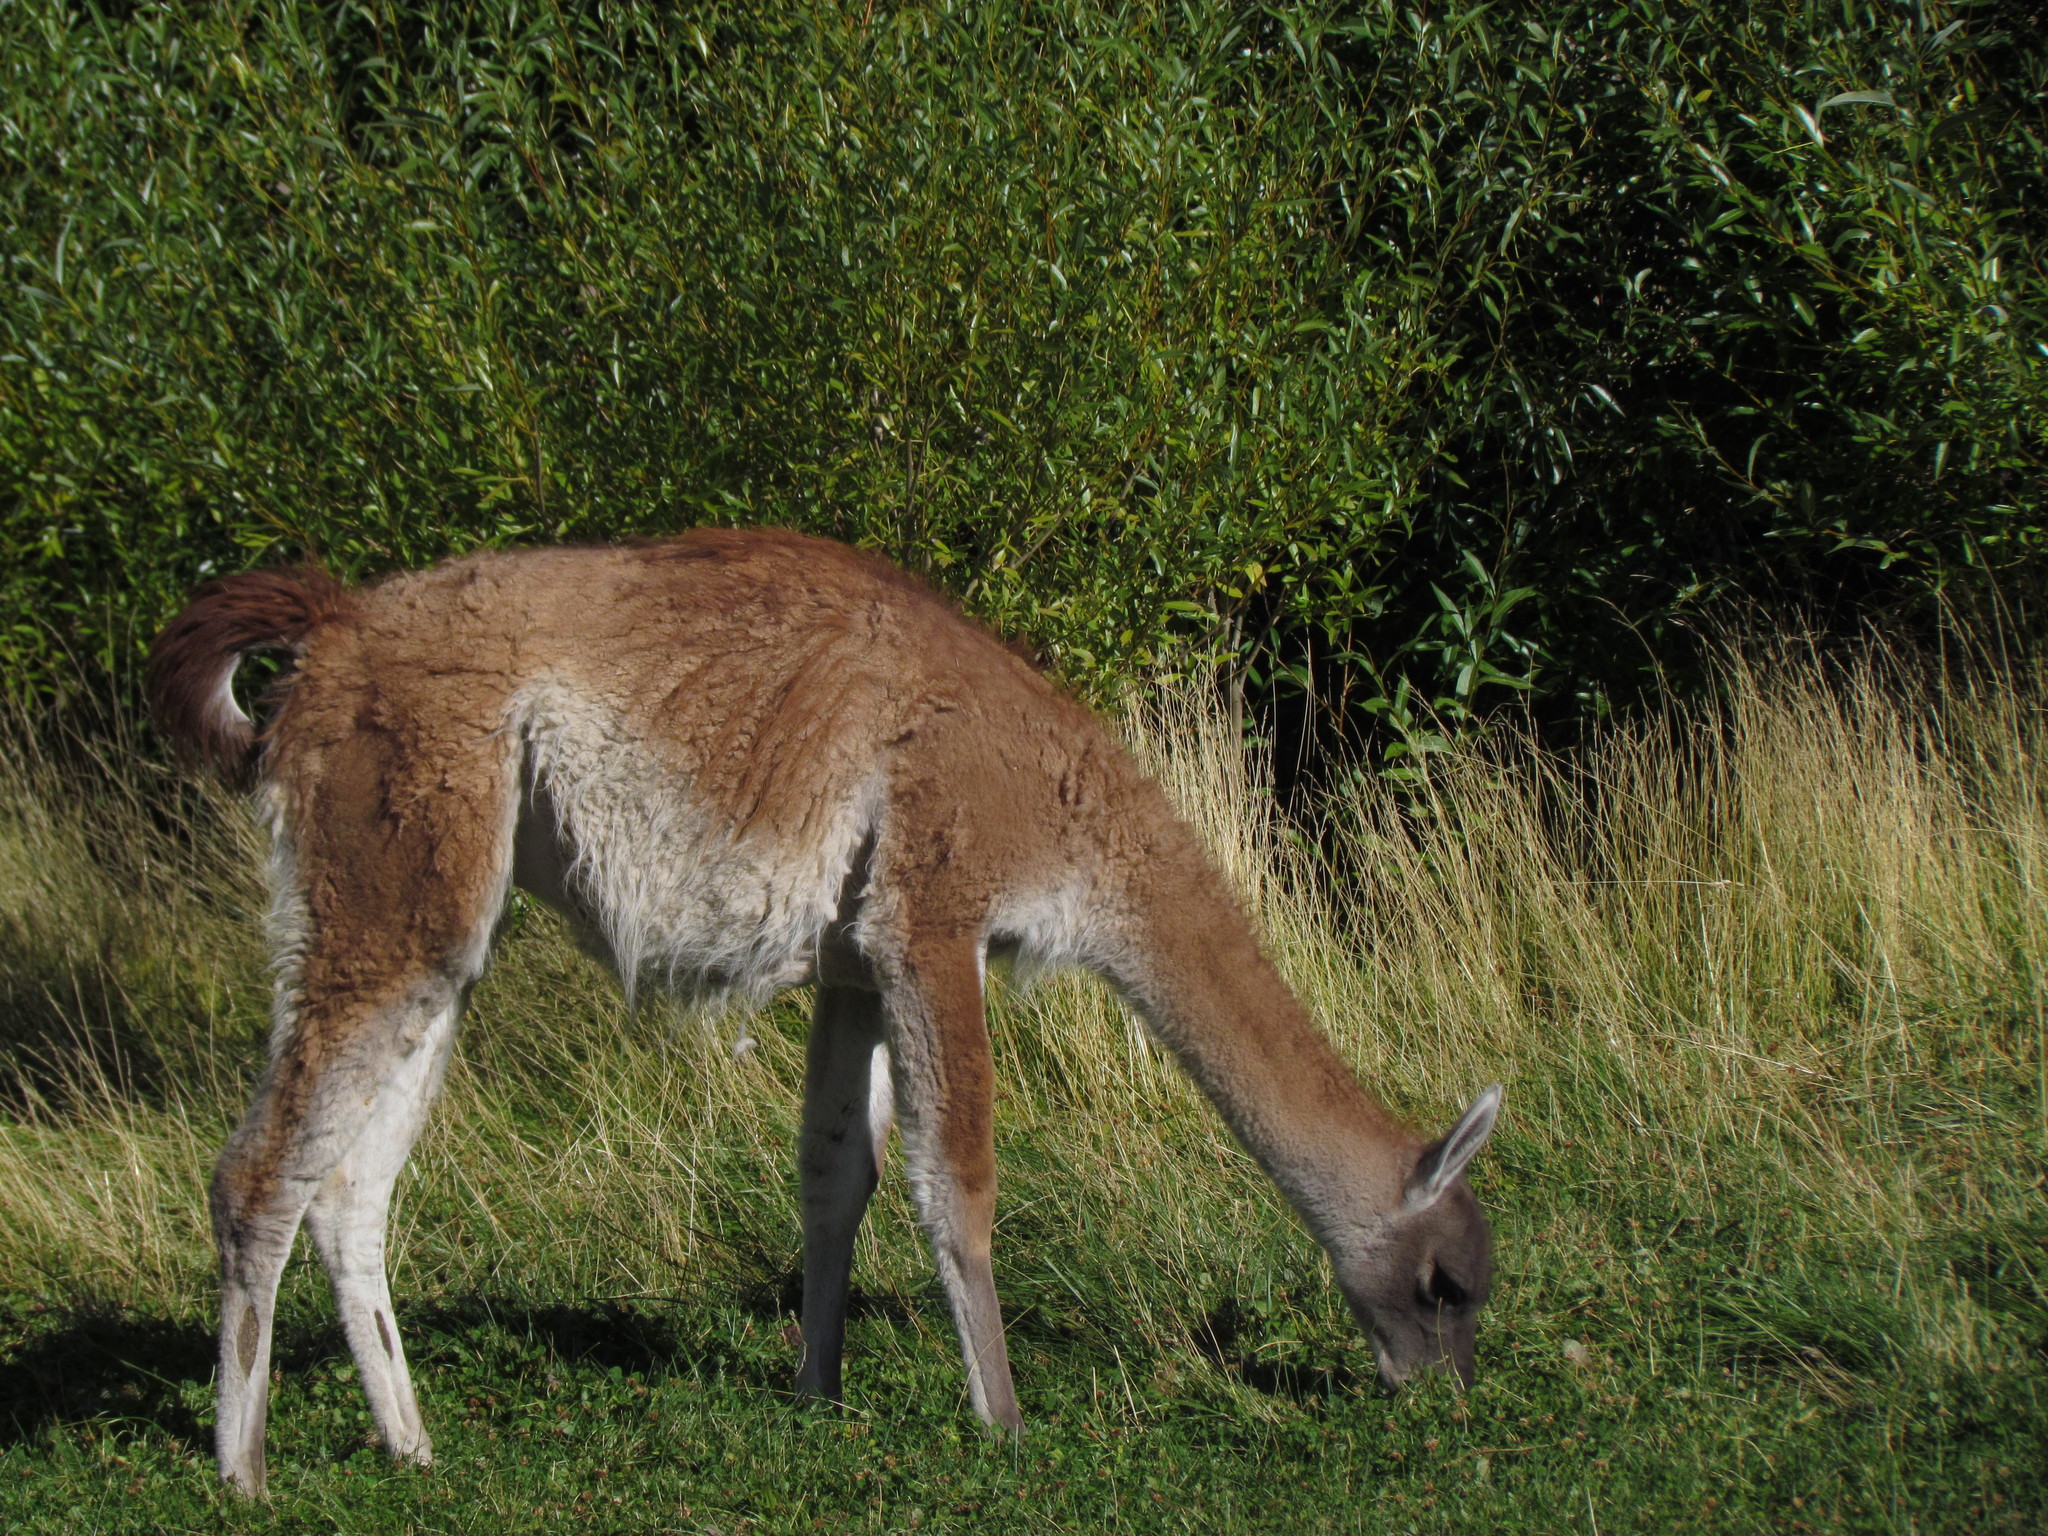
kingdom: Animalia
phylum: Chordata
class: Mammalia
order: Artiodactyla
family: Camelidae
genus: Lama
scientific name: Lama glama
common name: Llama
